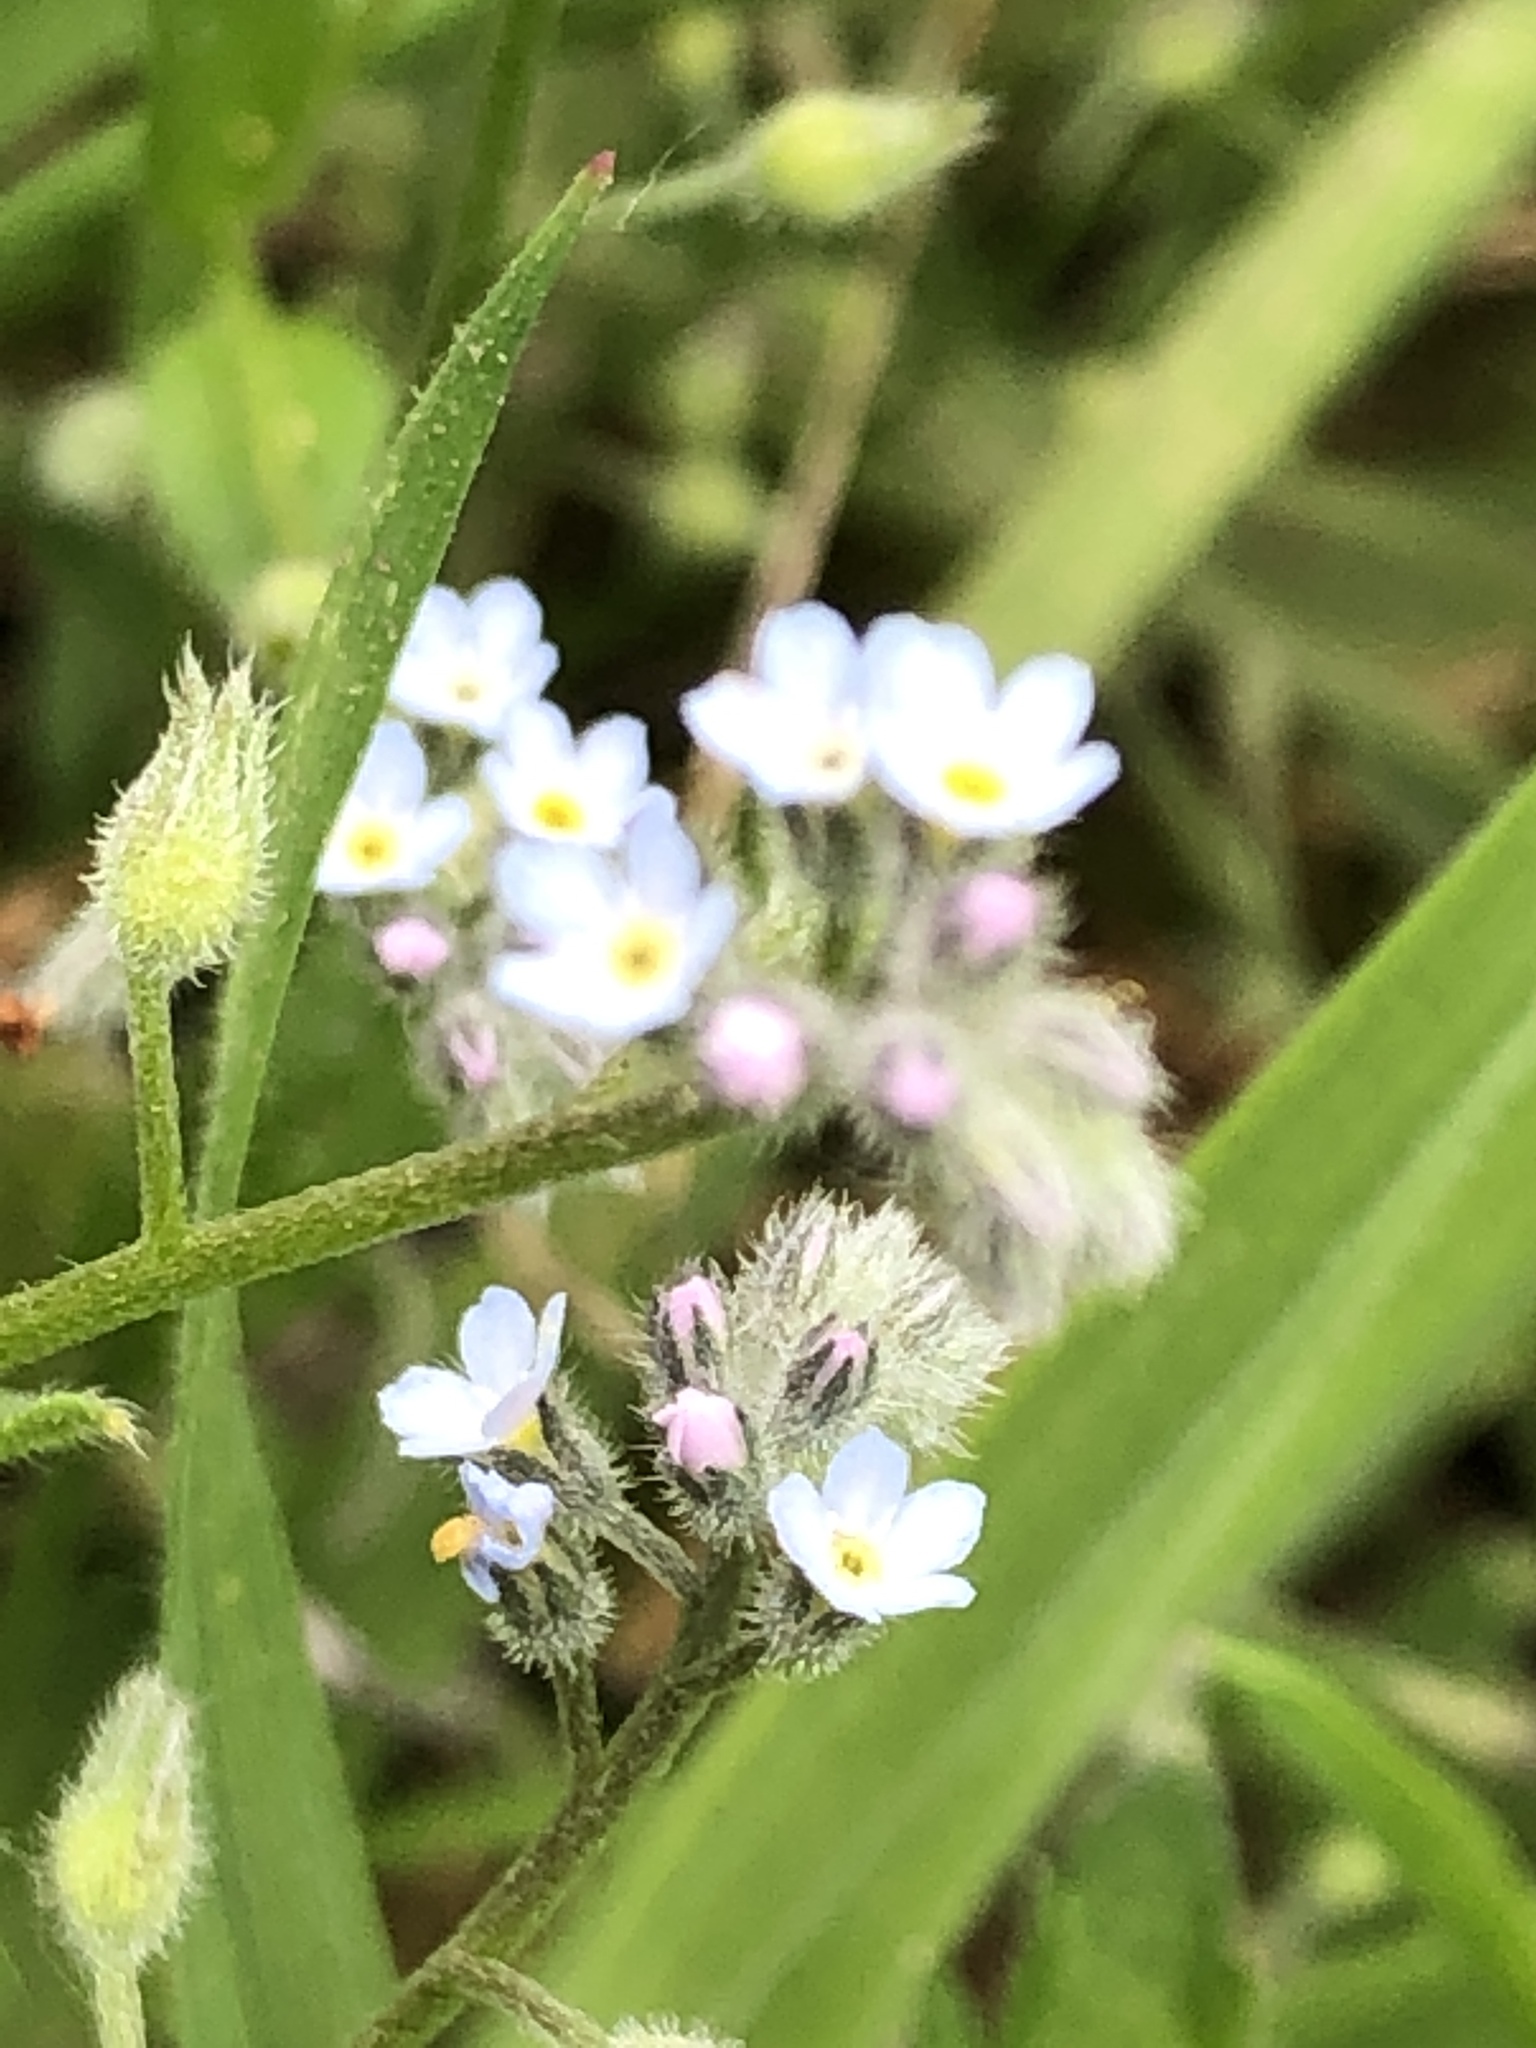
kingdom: Plantae
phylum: Tracheophyta
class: Magnoliopsida
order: Boraginales
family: Boraginaceae
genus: Myosotis
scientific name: Myosotis sylvatica
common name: Wood forget-me-not
